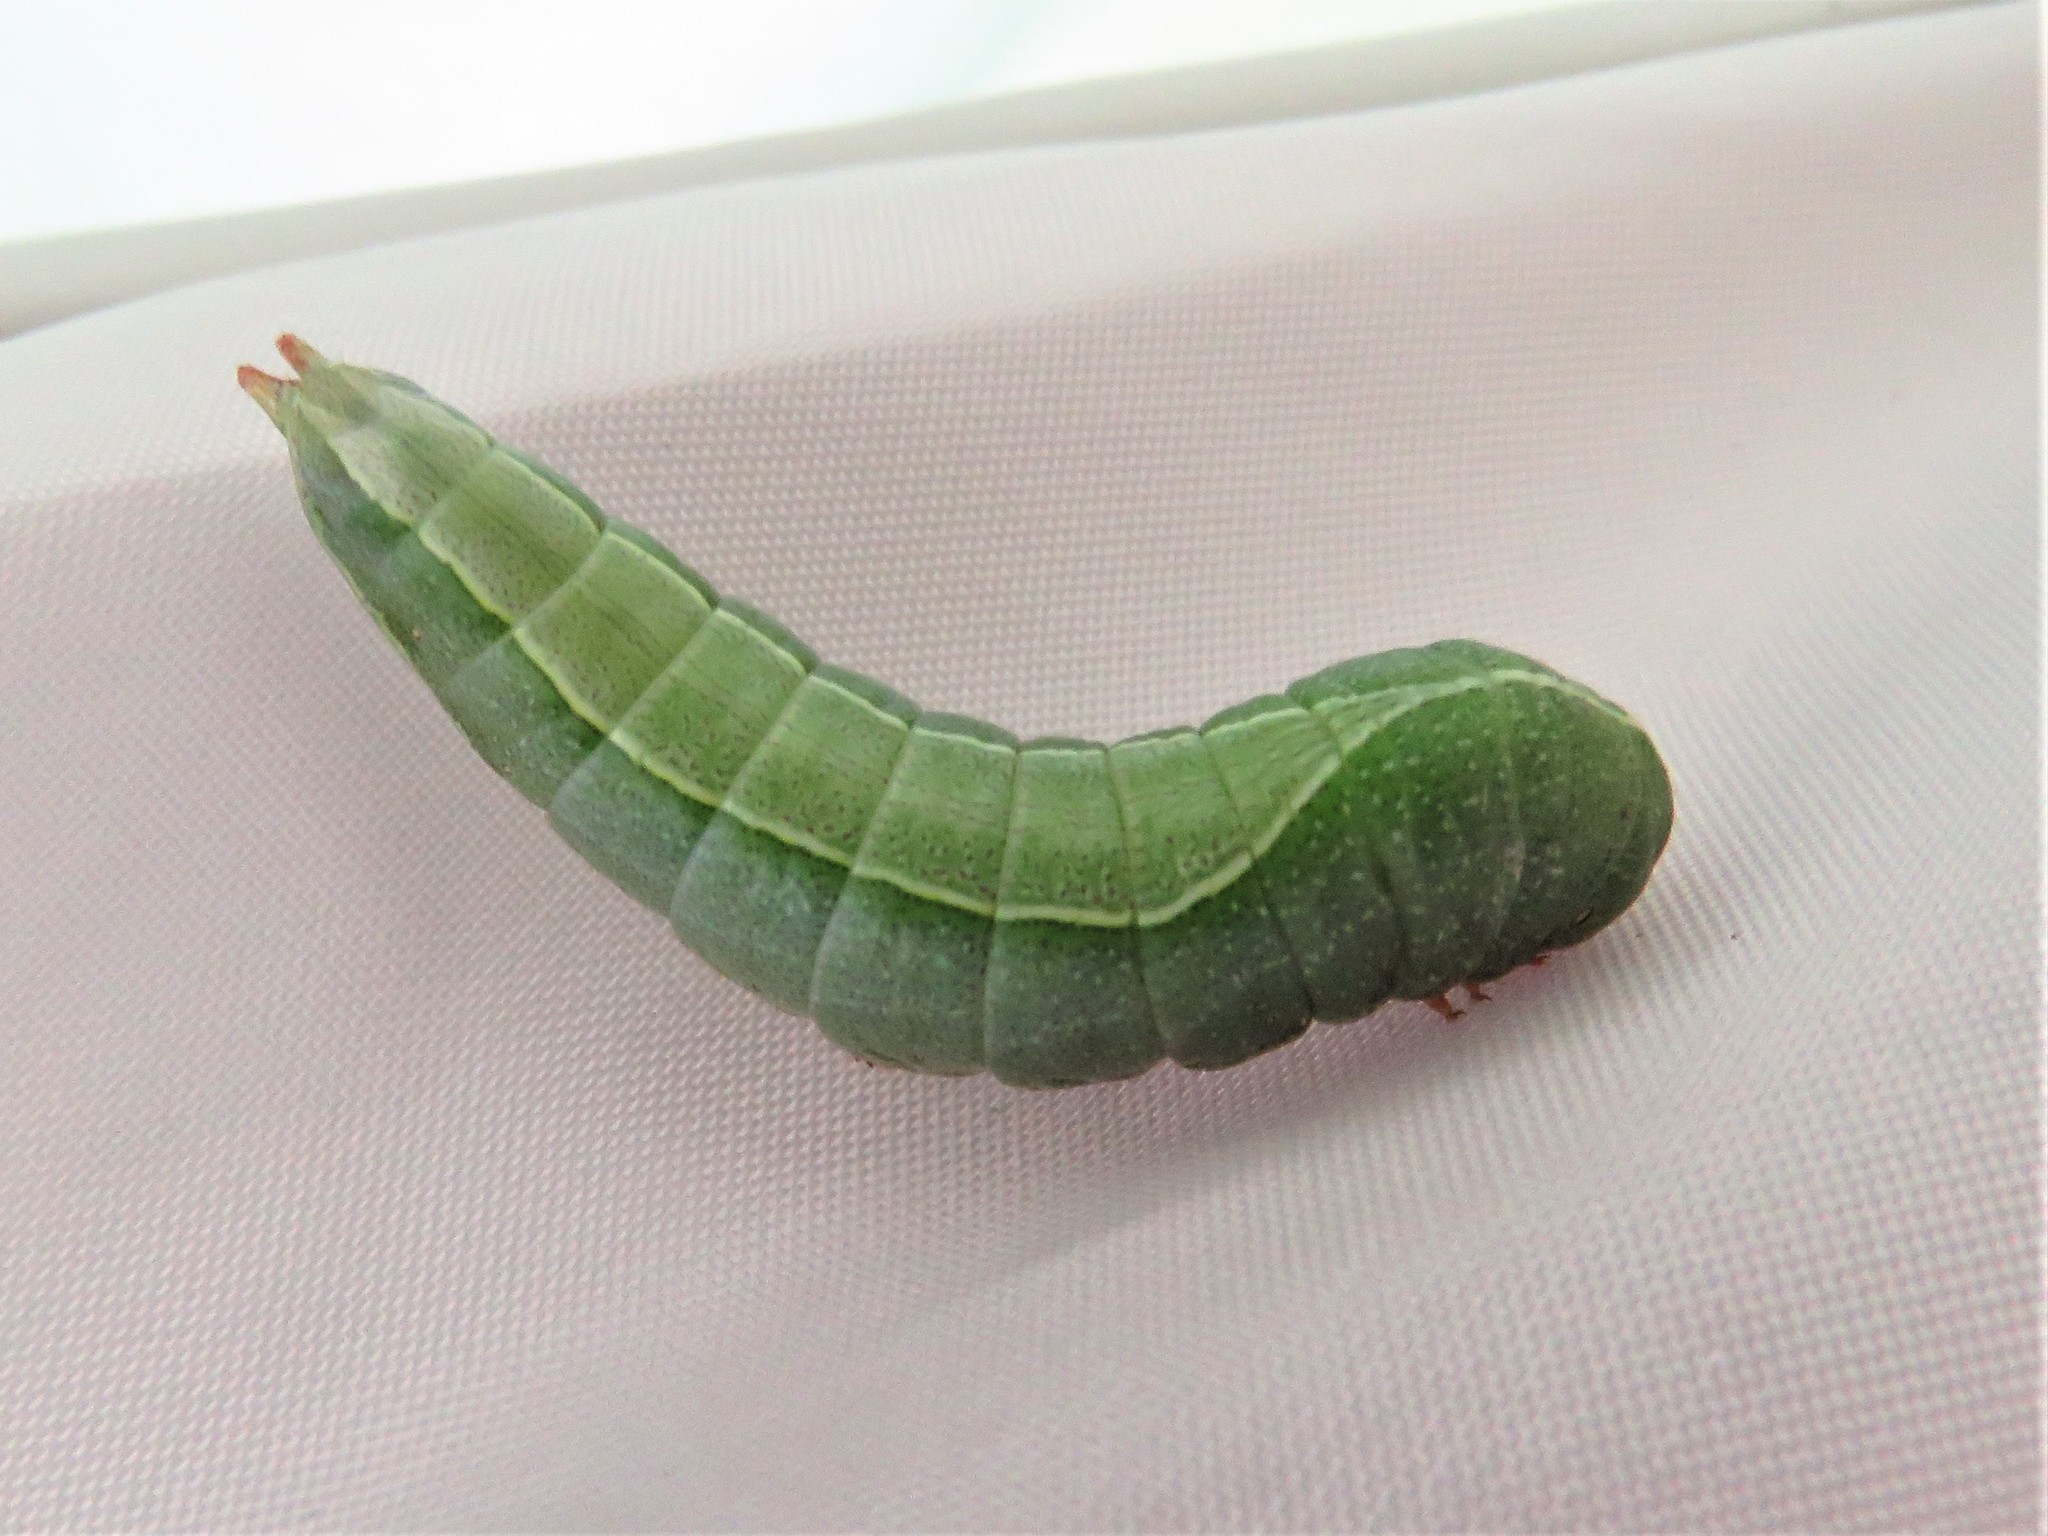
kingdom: Animalia
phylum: Arthropoda
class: Insecta
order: Lepidoptera
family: Notodontidae
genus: Heterocampa
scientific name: Heterocampa astartoides
